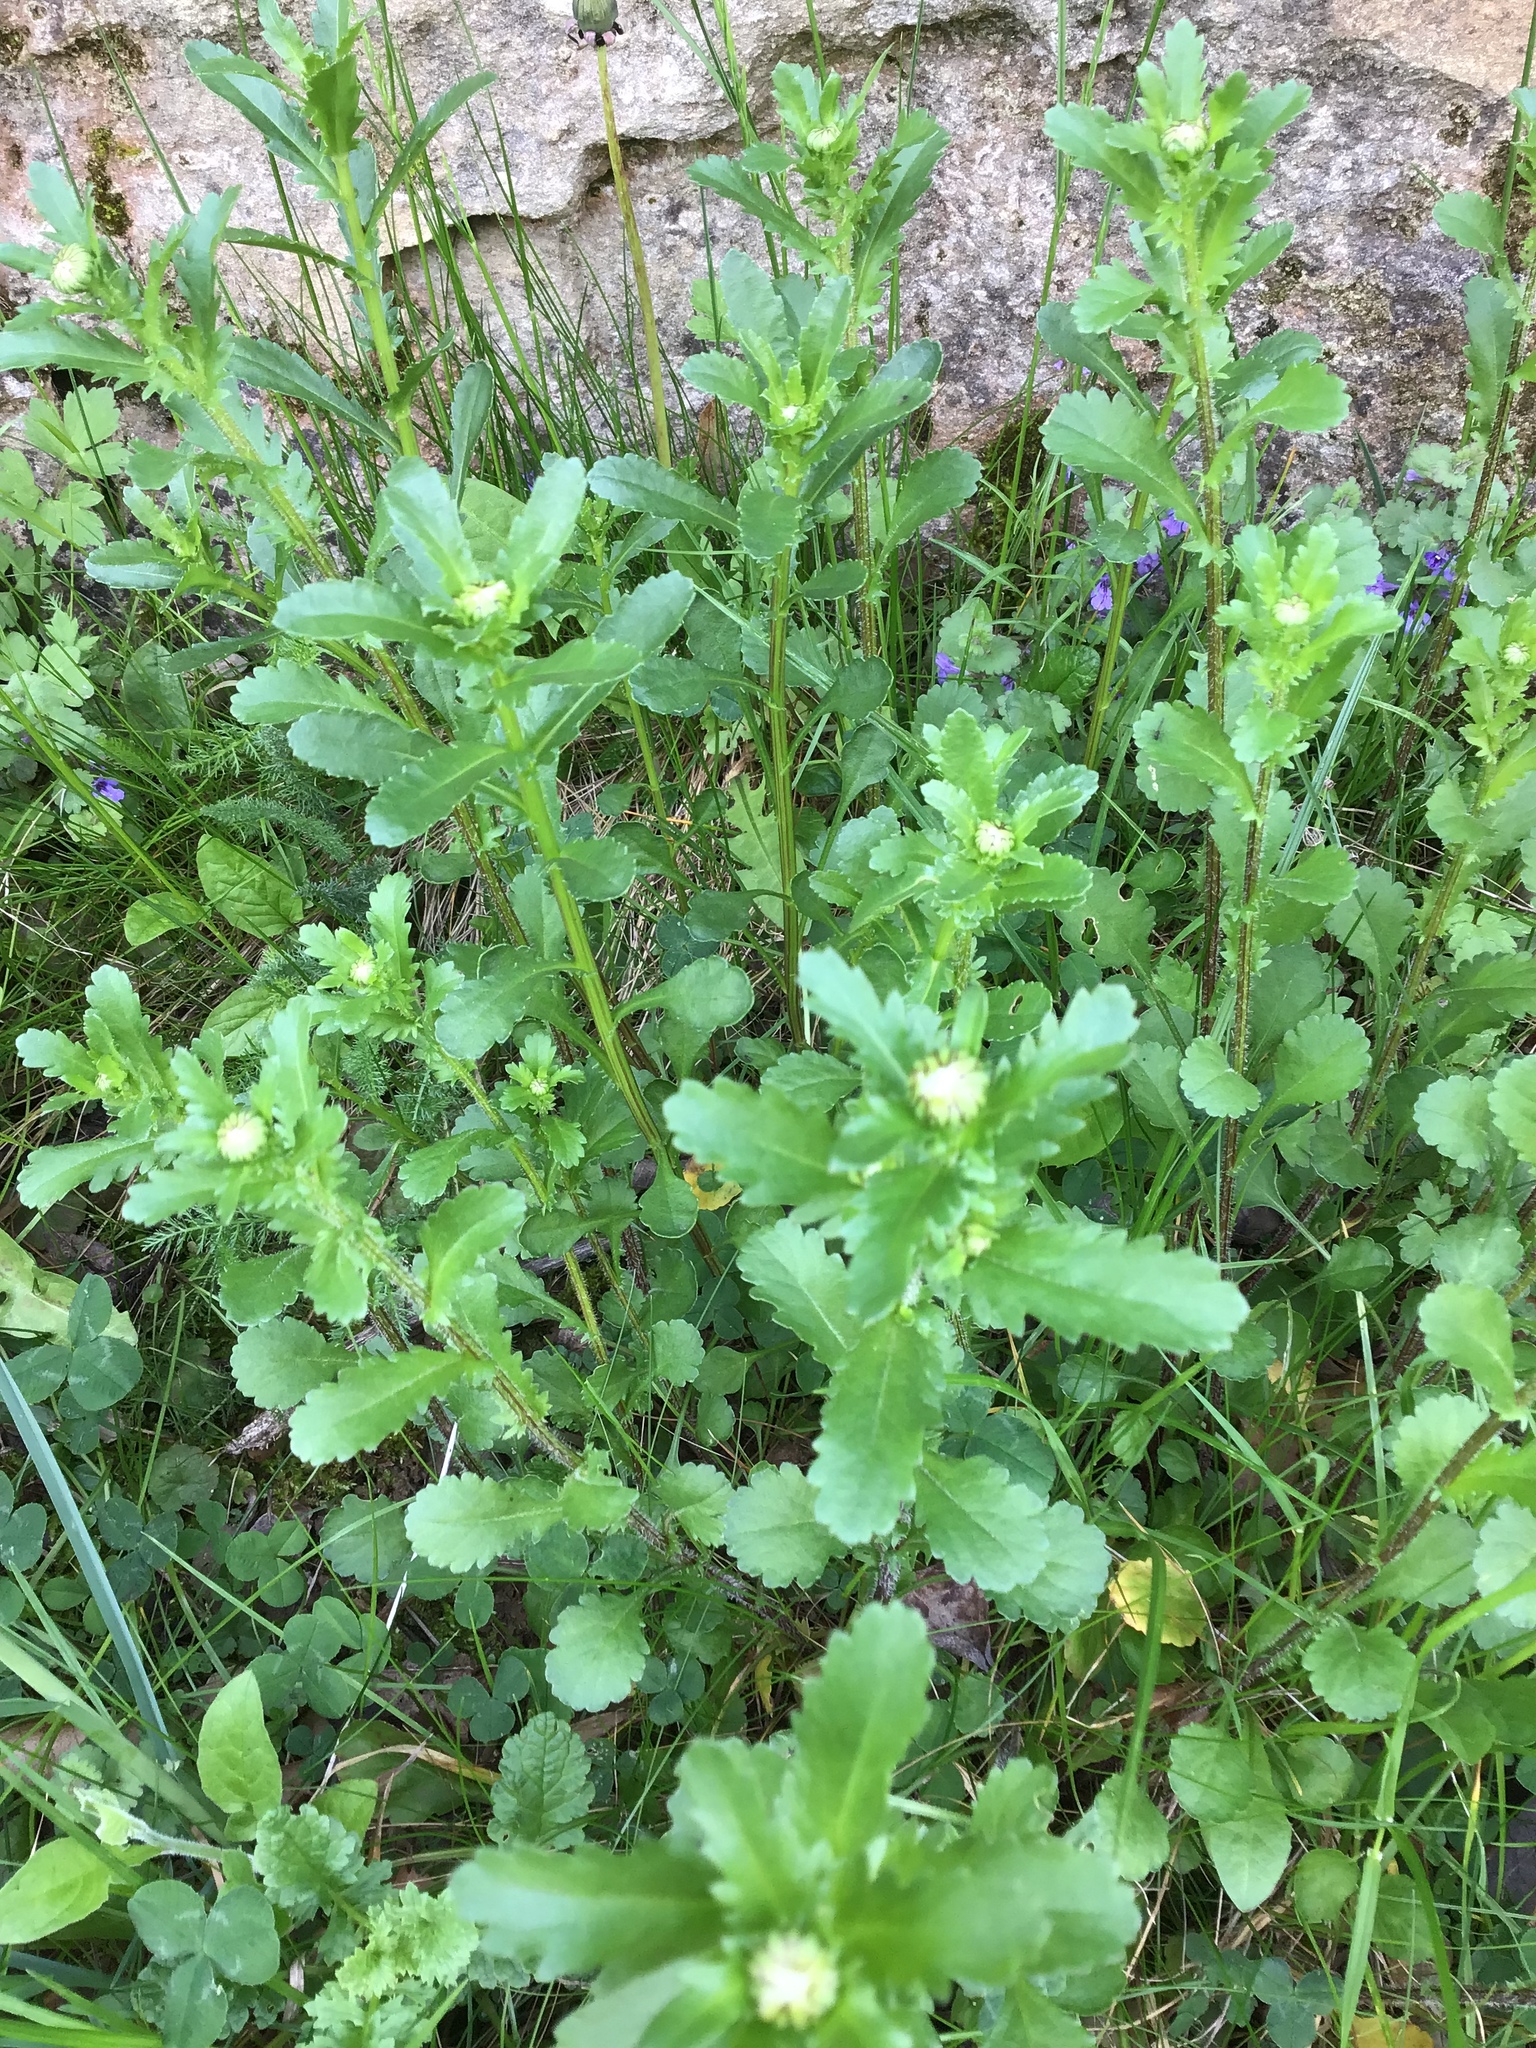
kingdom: Plantae
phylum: Tracheophyta
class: Magnoliopsida
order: Asterales
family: Asteraceae
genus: Leucanthemum
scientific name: Leucanthemum vulgare
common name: Oxeye daisy
